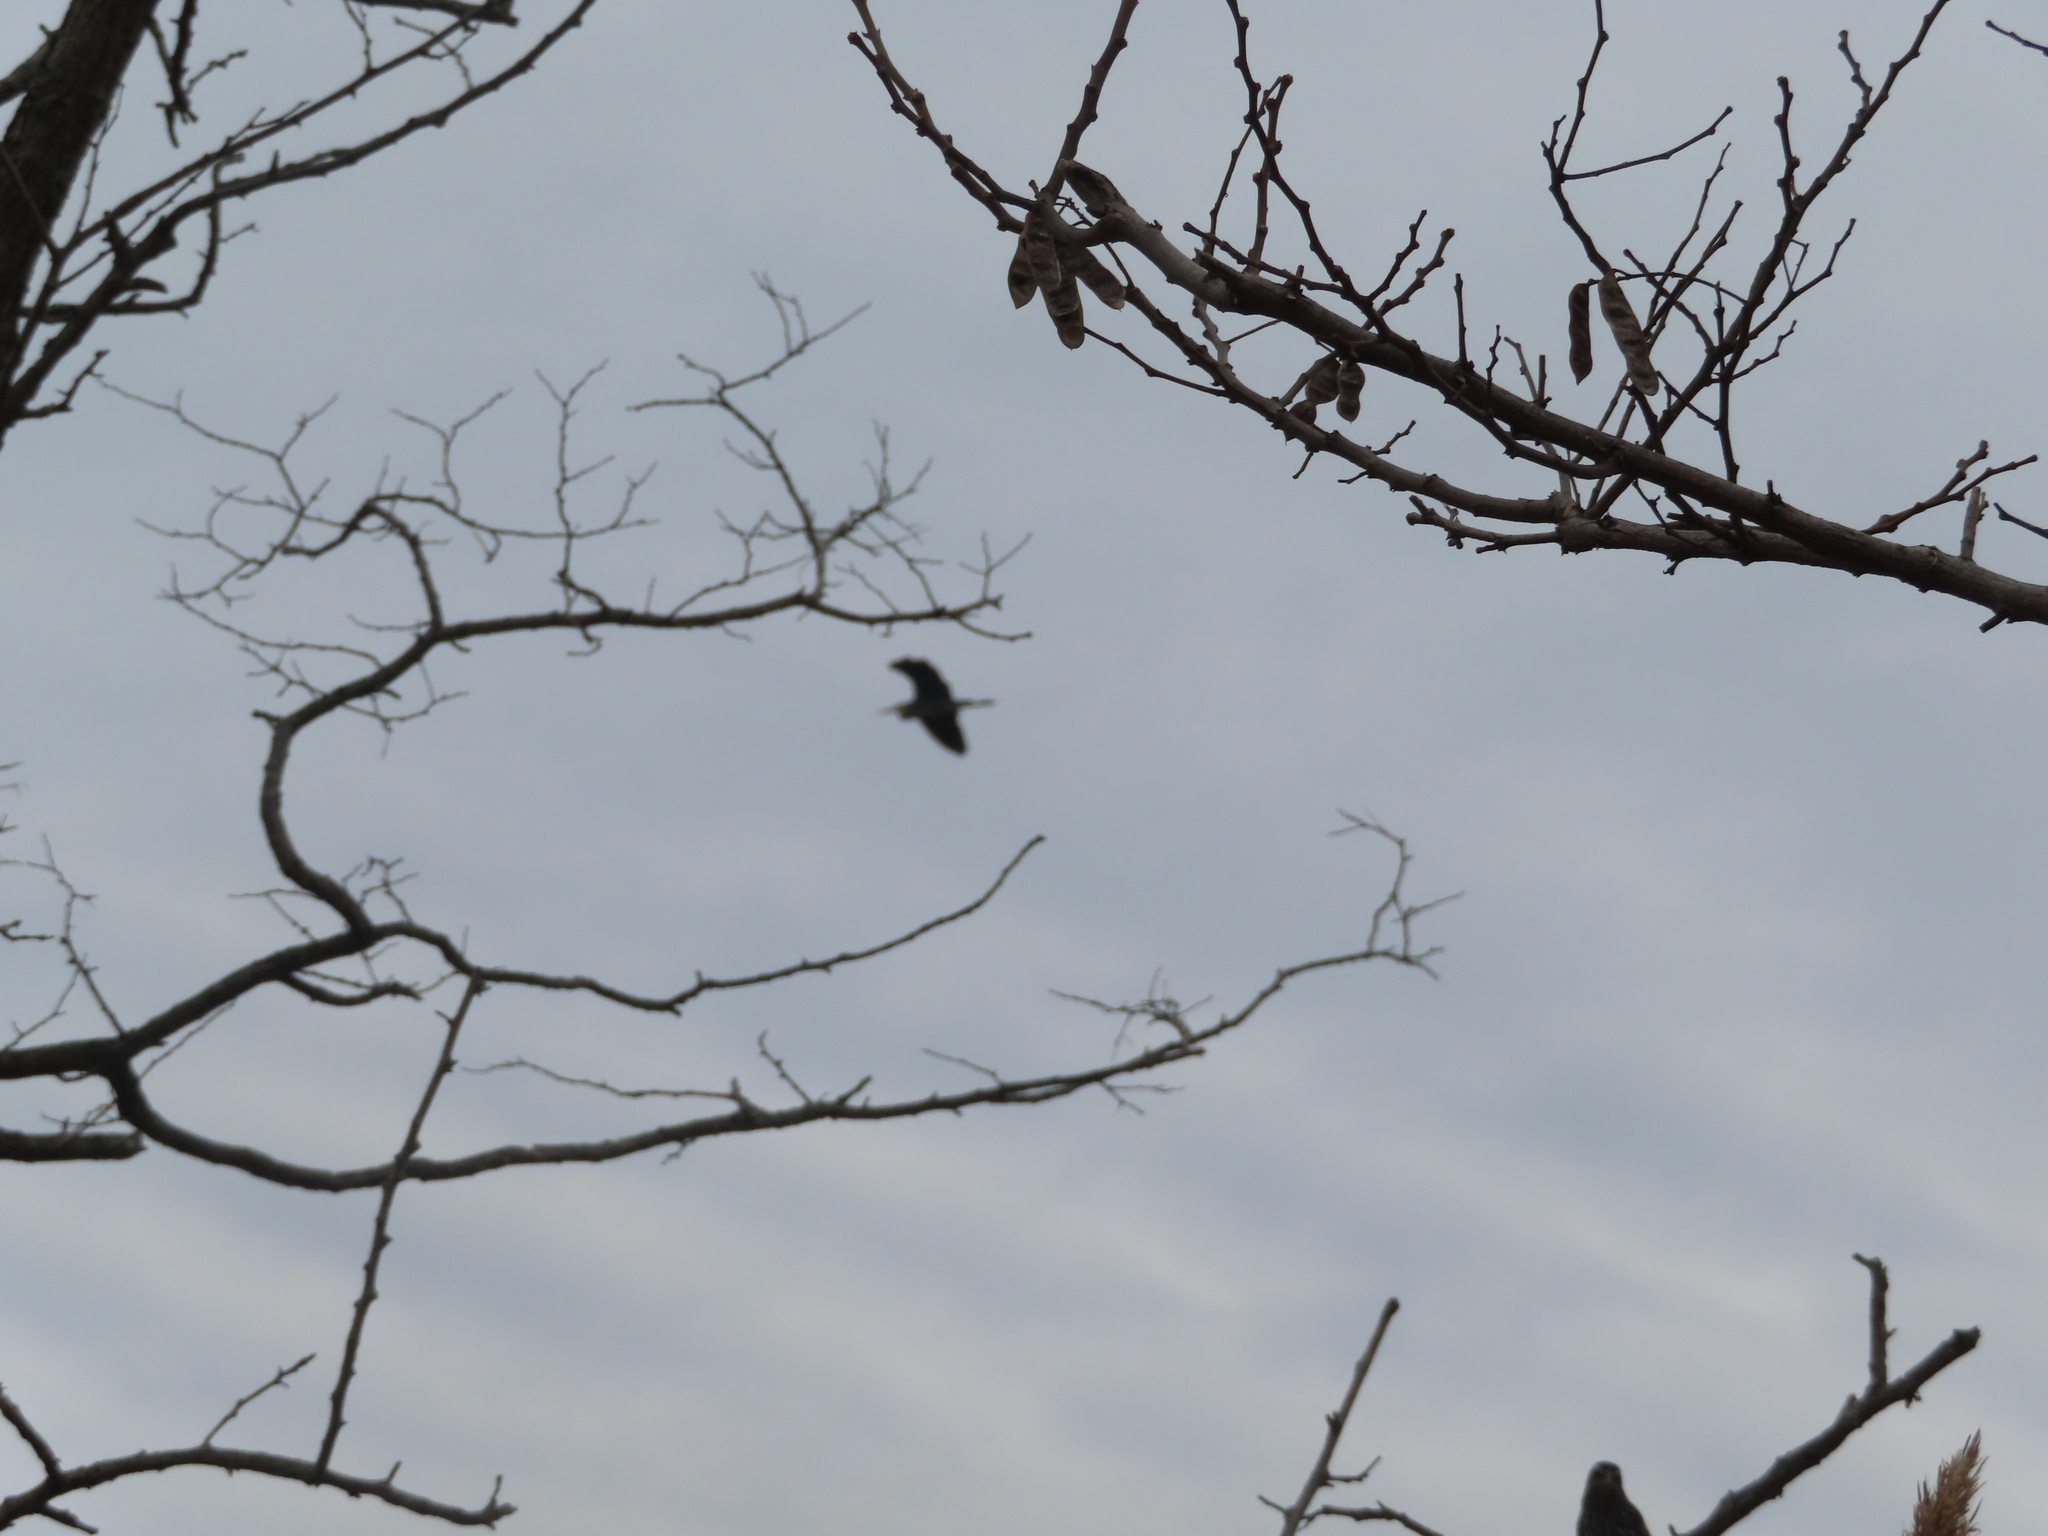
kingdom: Animalia
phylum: Chordata
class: Aves
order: Pelecaniformes
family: Ardeidae
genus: Ardea
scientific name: Ardea herodias
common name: Great blue heron
